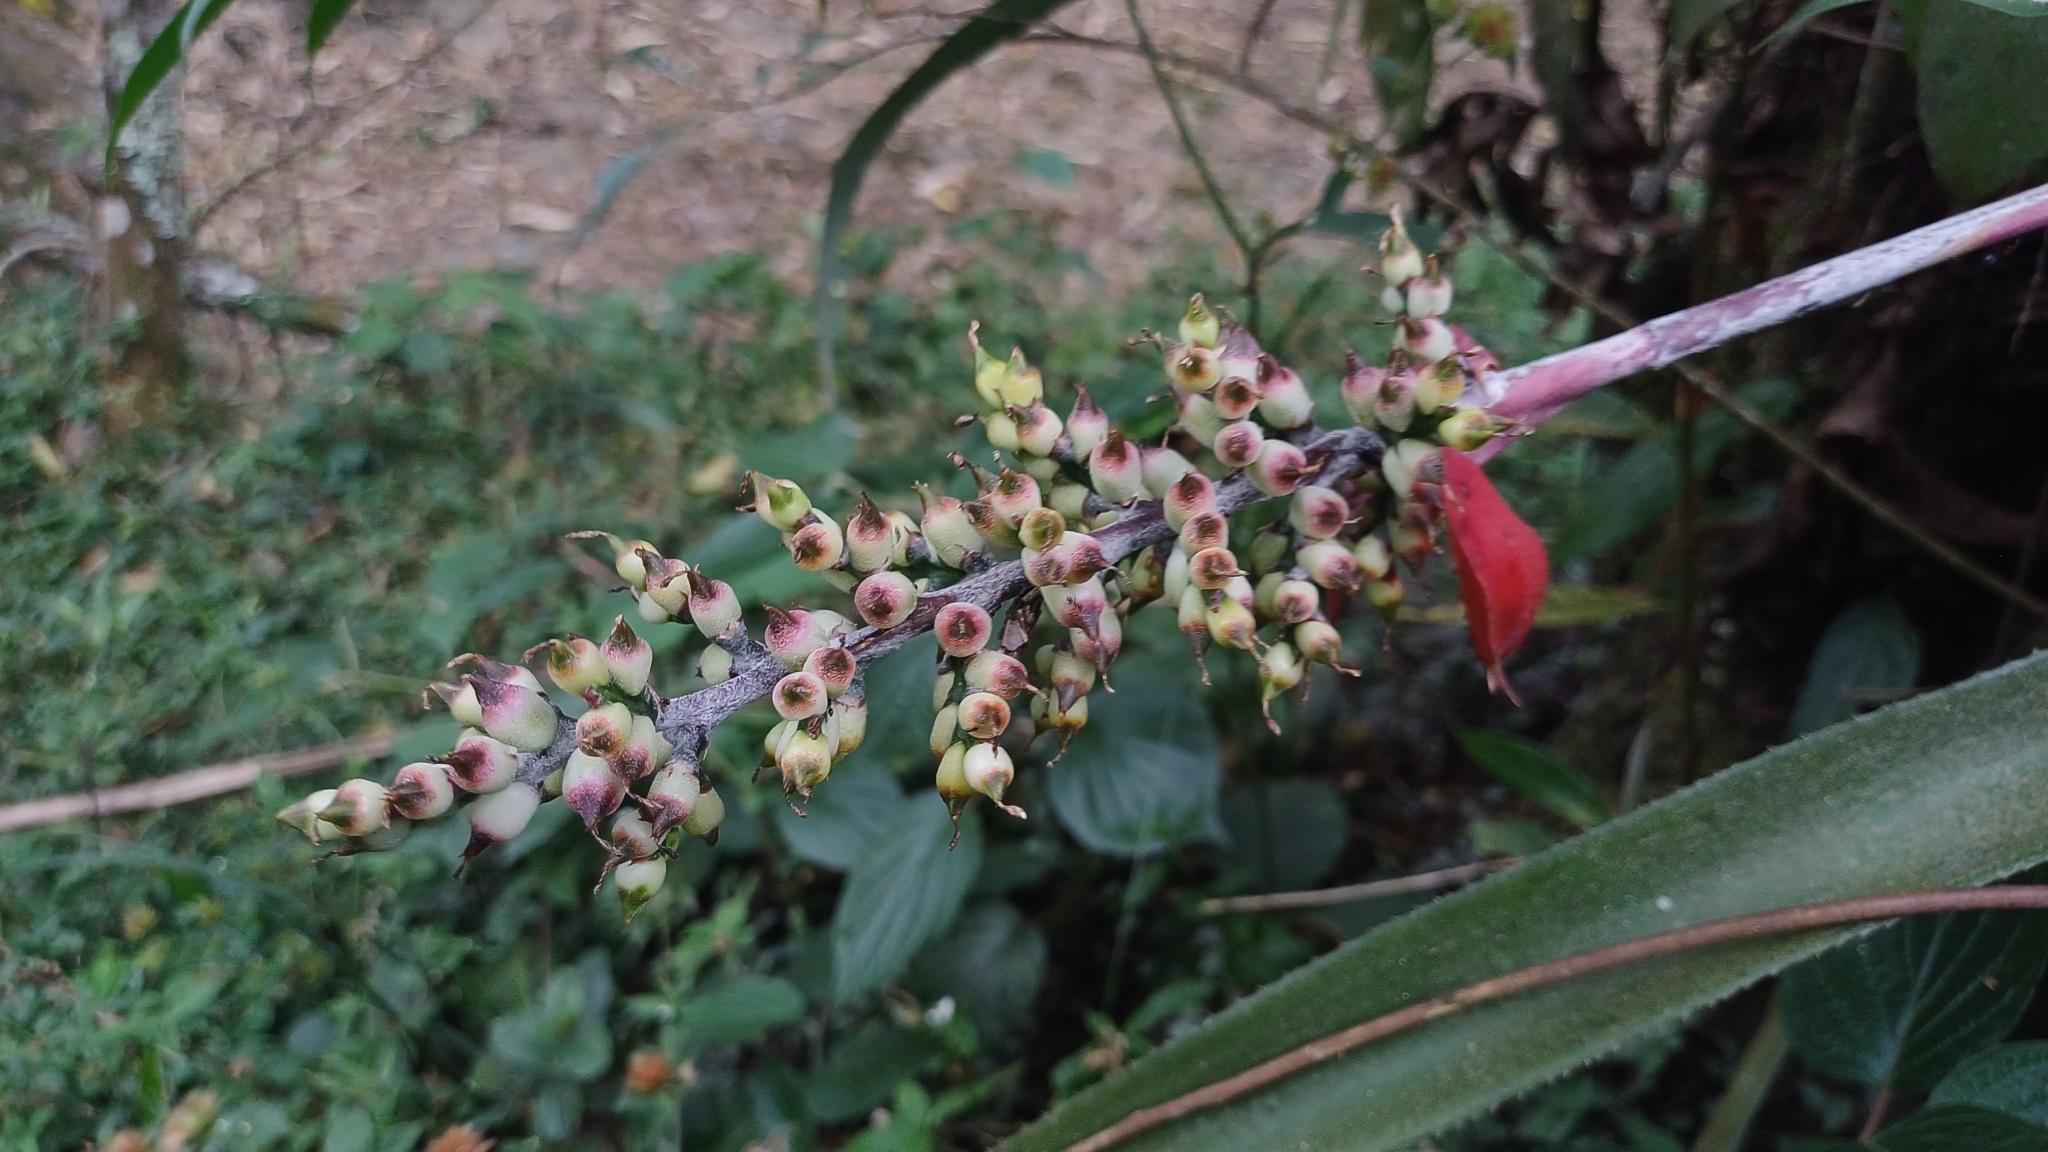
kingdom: Plantae
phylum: Tracheophyta
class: Liliopsida
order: Poales
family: Bromeliaceae
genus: Aechmea
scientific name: Aechmea angustifolia
